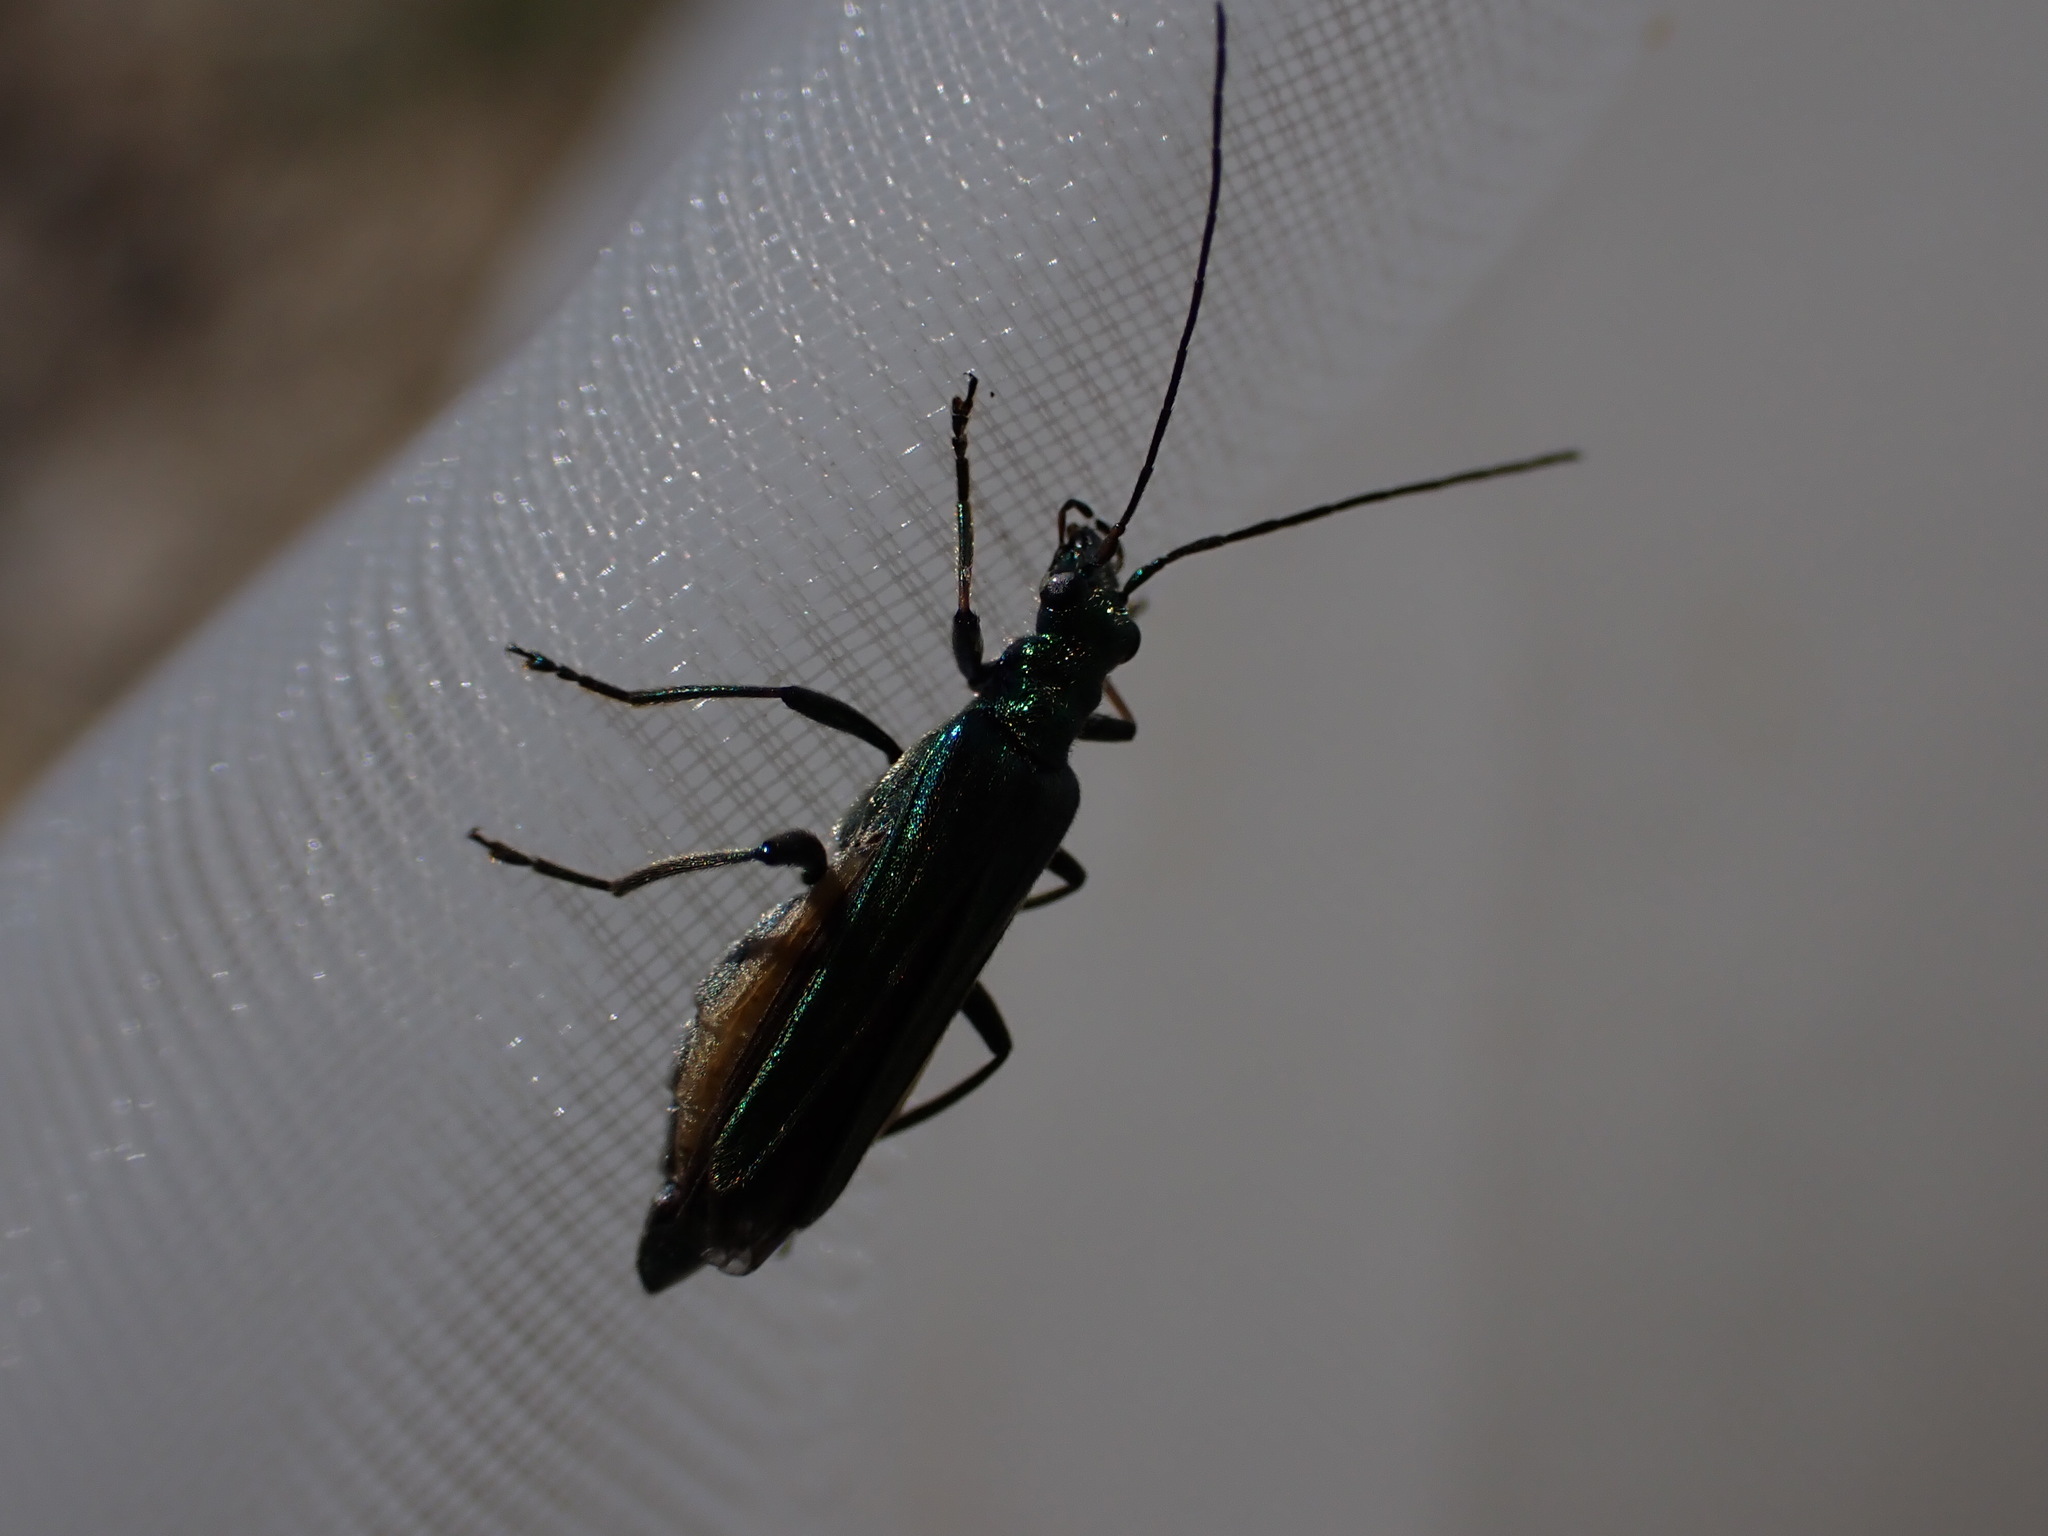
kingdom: Animalia
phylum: Arthropoda
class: Insecta
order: Coleoptera
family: Oedemeridae
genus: Oedemera
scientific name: Oedemera nobilis
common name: Swollen-thighed beetle
